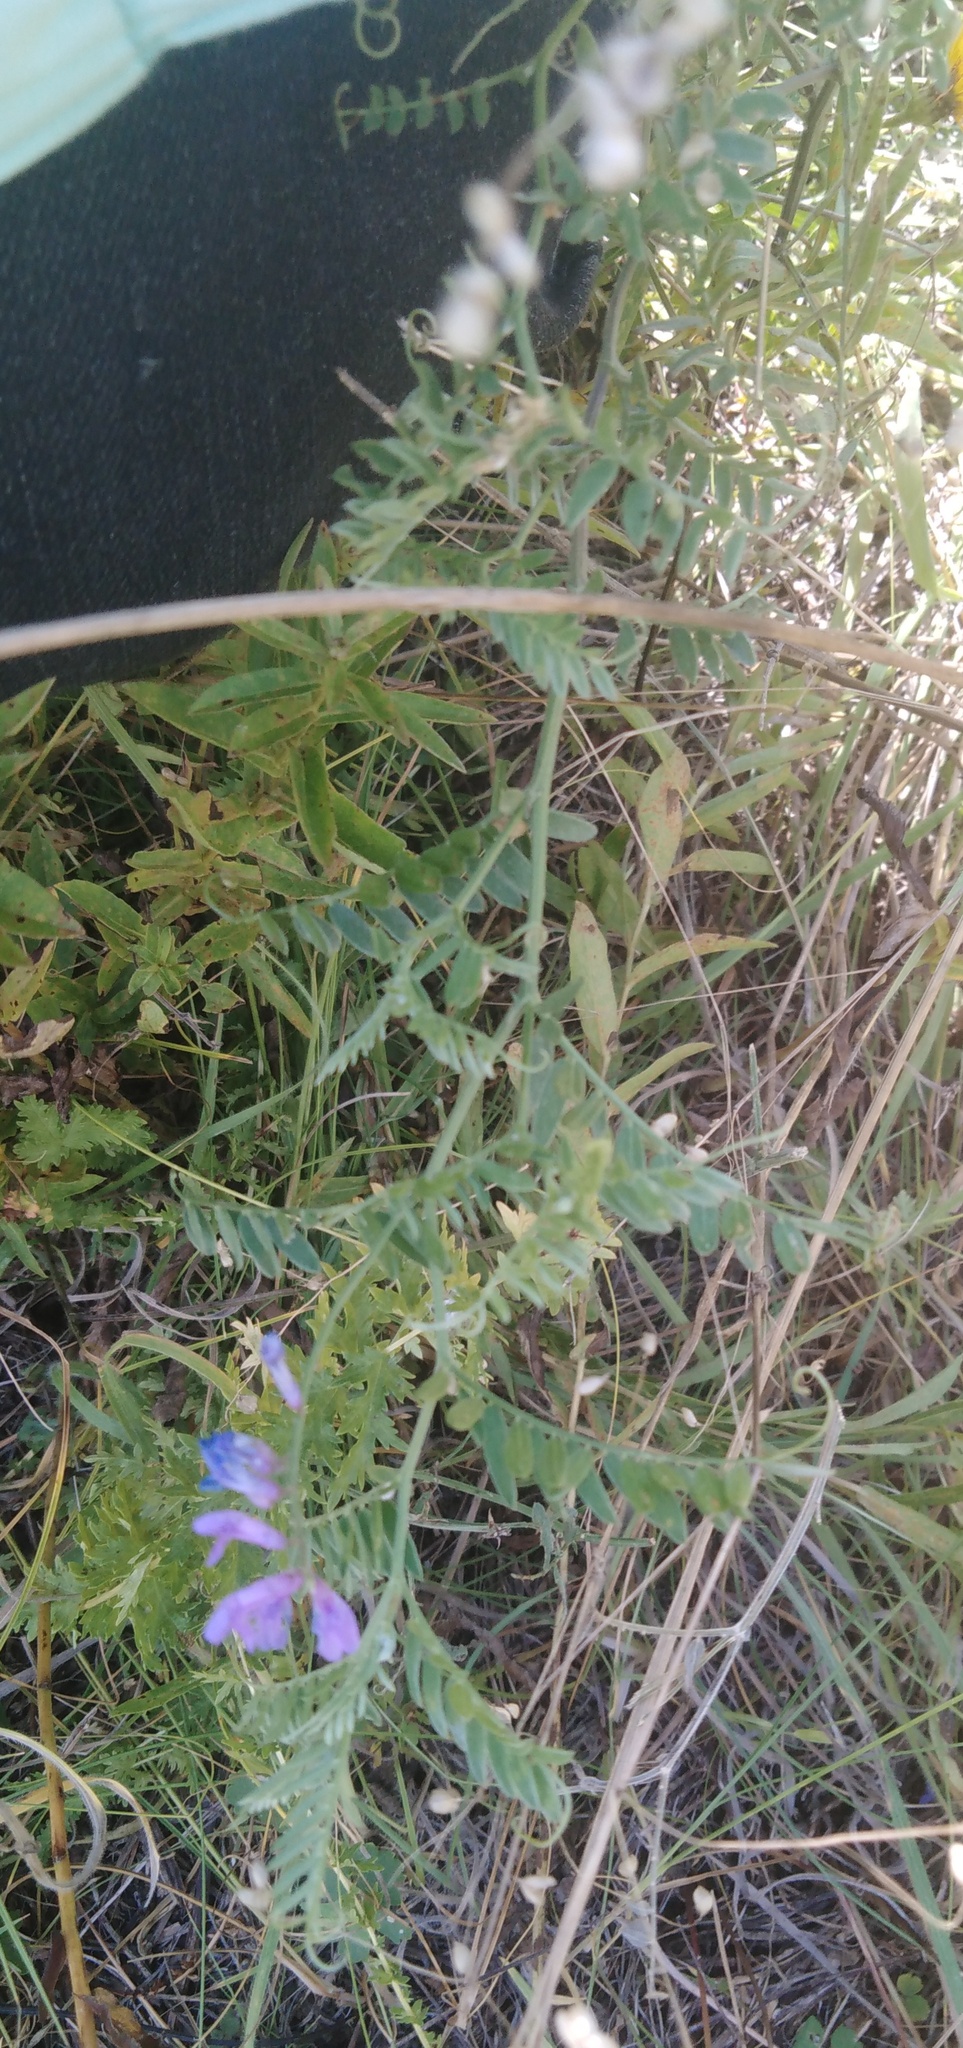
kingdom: Plantae
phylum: Tracheophyta
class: Magnoliopsida
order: Fabales
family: Fabaceae
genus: Vicia
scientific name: Vicia cracca
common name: Bird vetch
